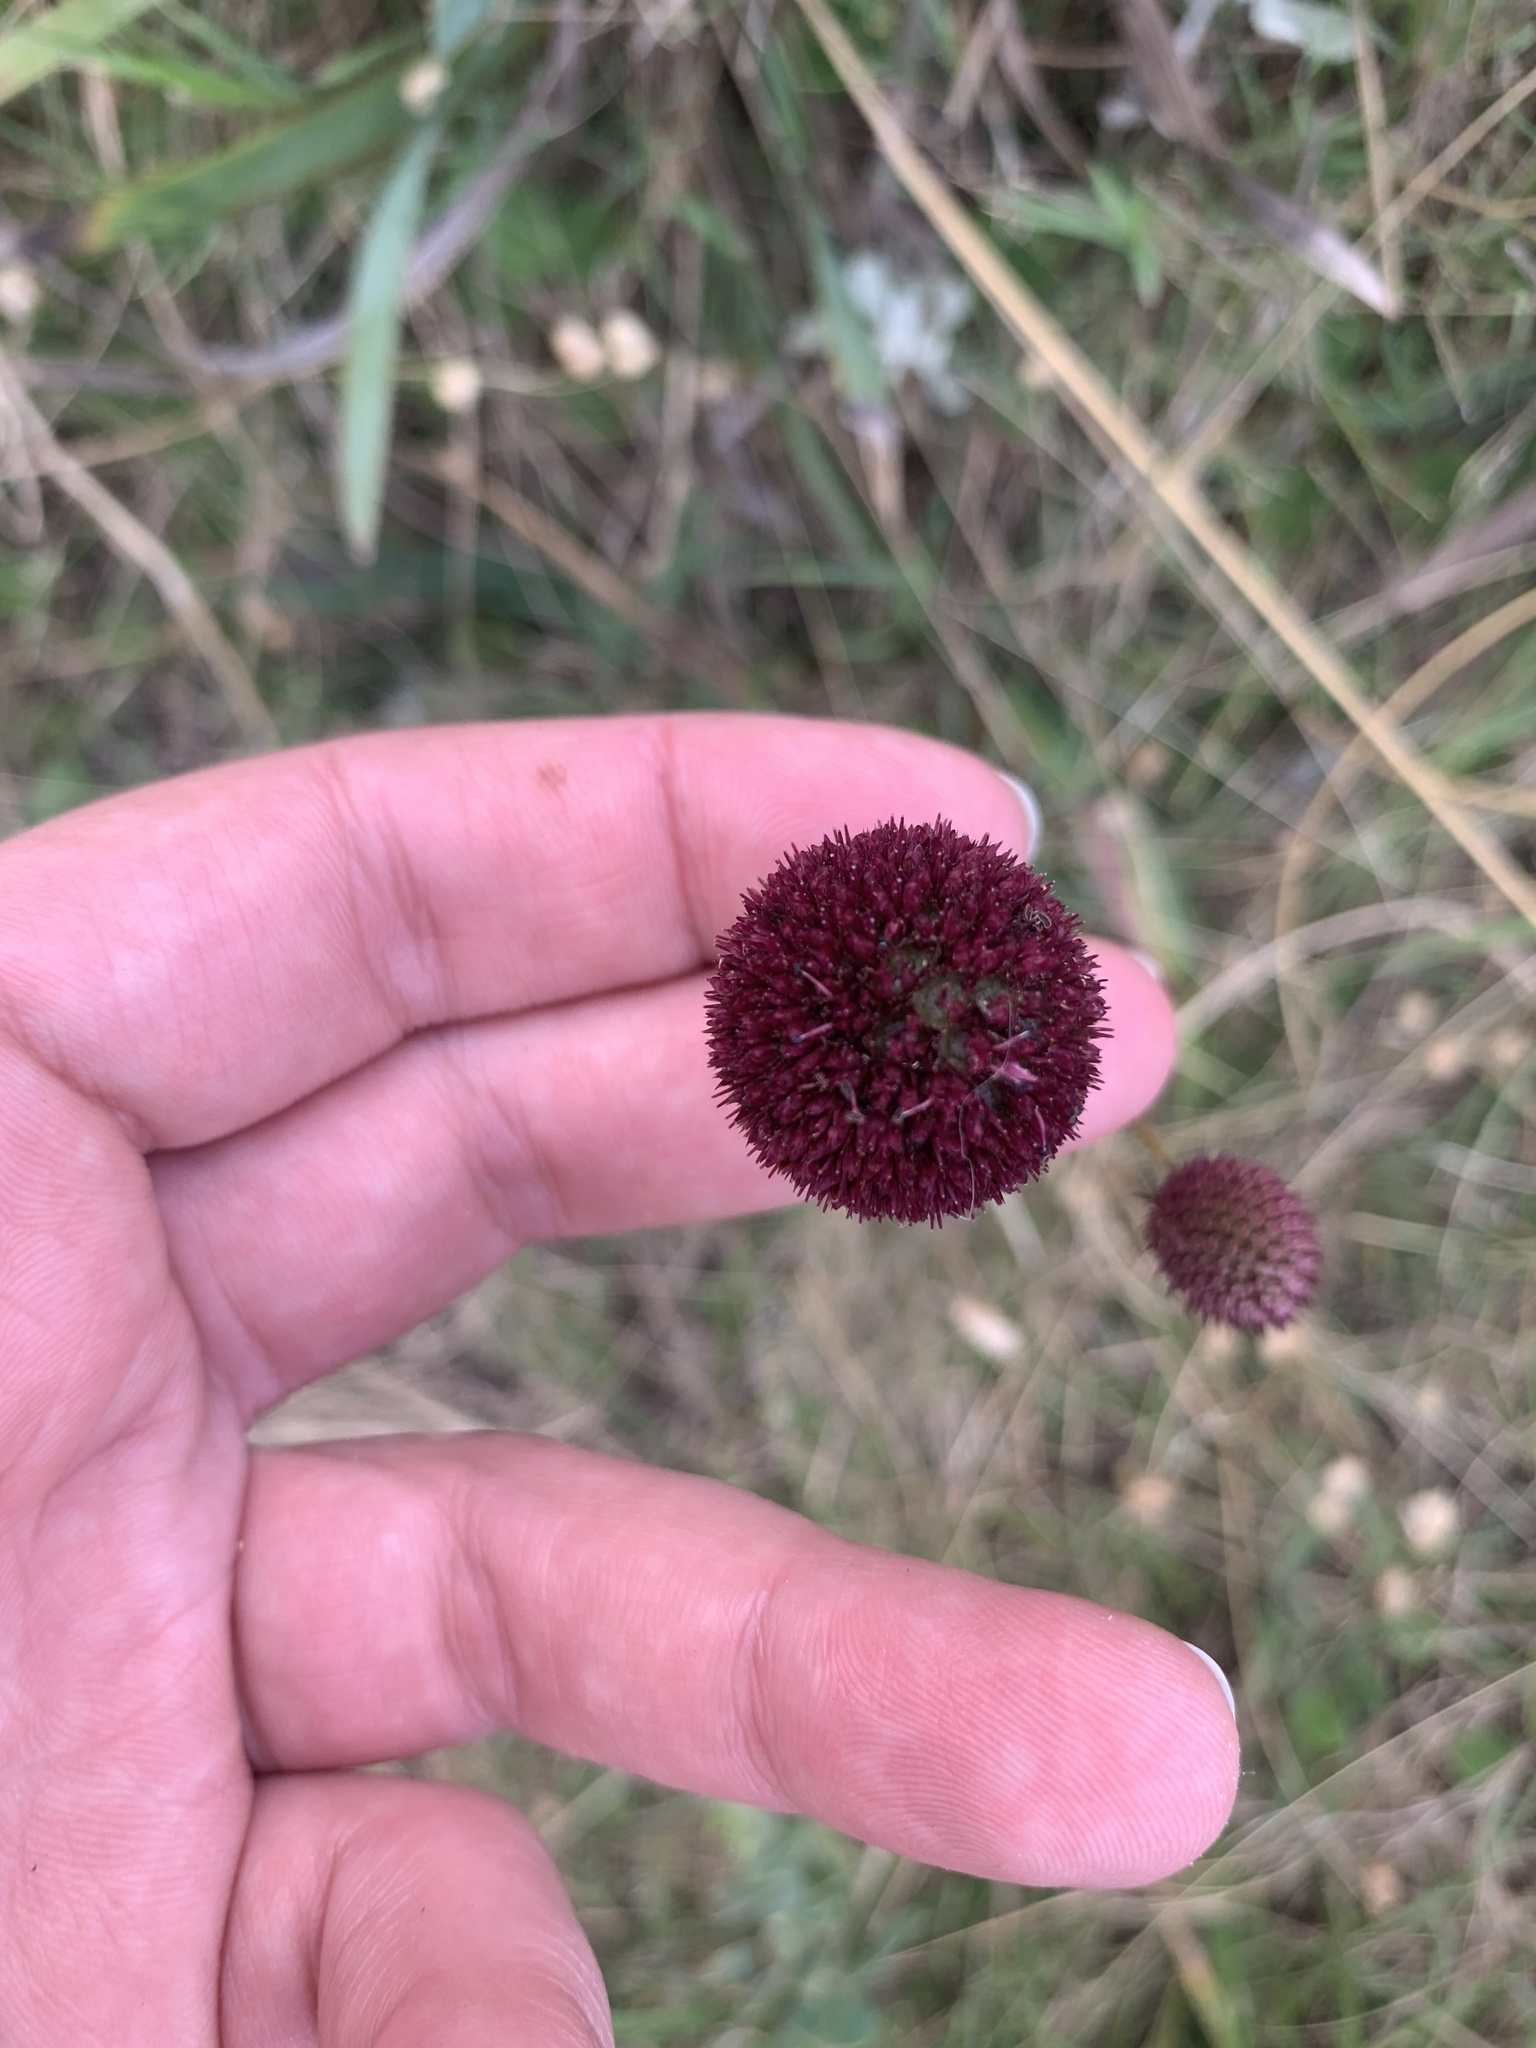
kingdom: Plantae
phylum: Tracheophyta
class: Magnoliopsida
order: Apiales
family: Apiaceae
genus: Eryngium
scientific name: Eryngium sanguisorba
